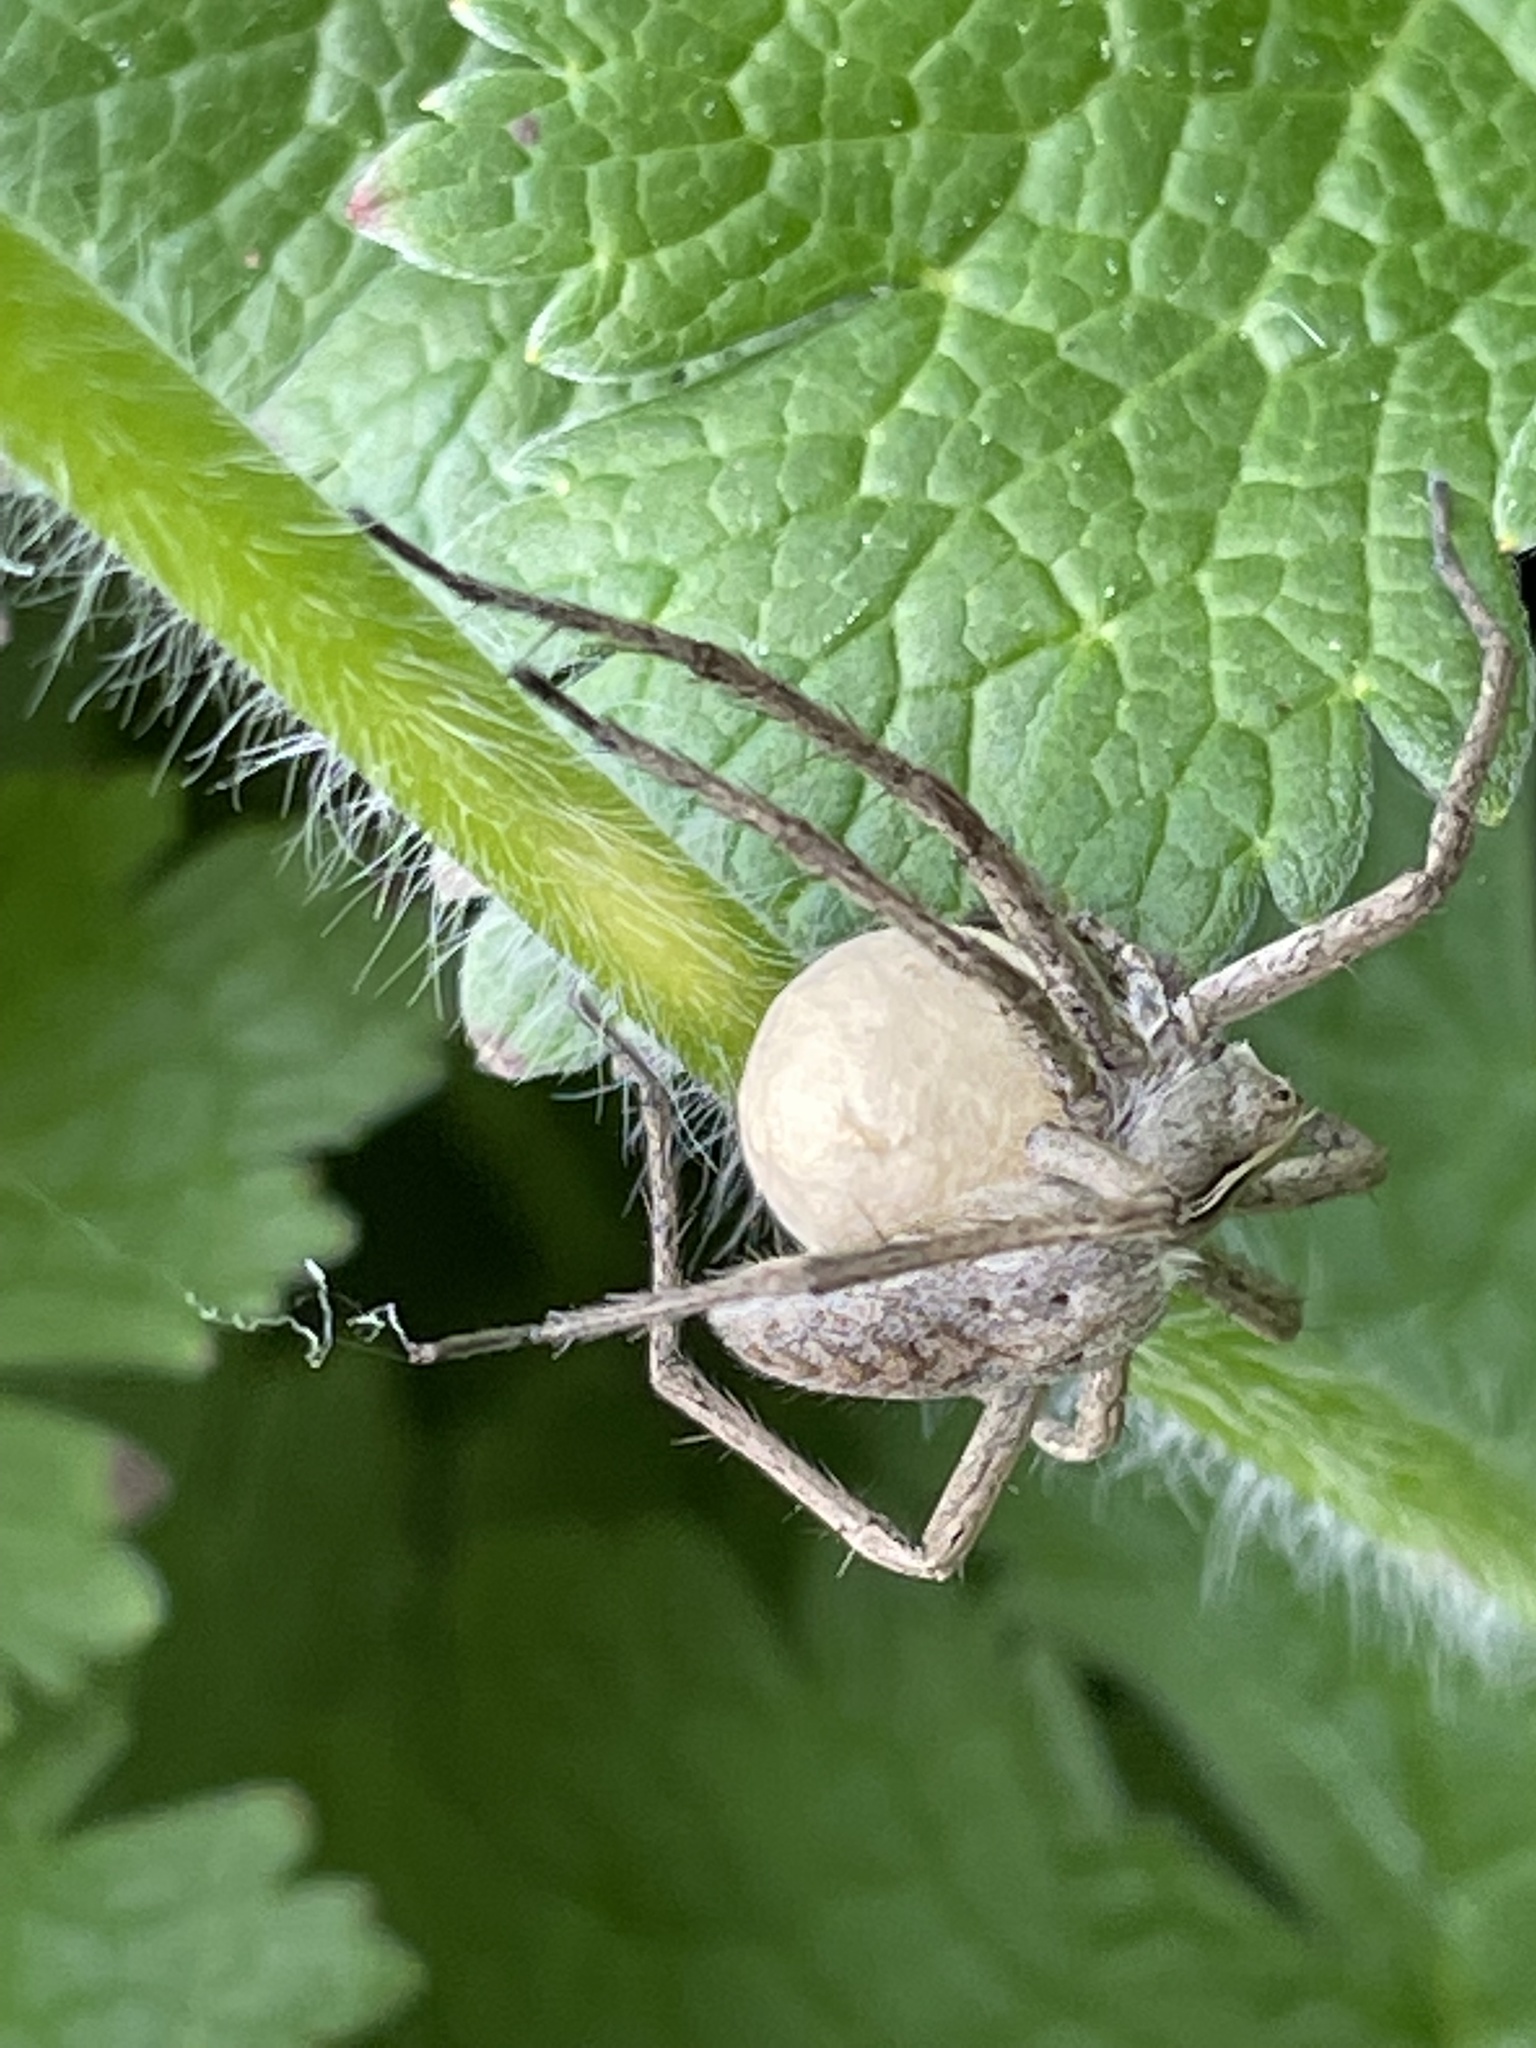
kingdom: Animalia
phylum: Arthropoda
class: Arachnida
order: Araneae
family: Pisauridae
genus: Pisaura
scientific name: Pisaura mirabilis
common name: Tent spider
